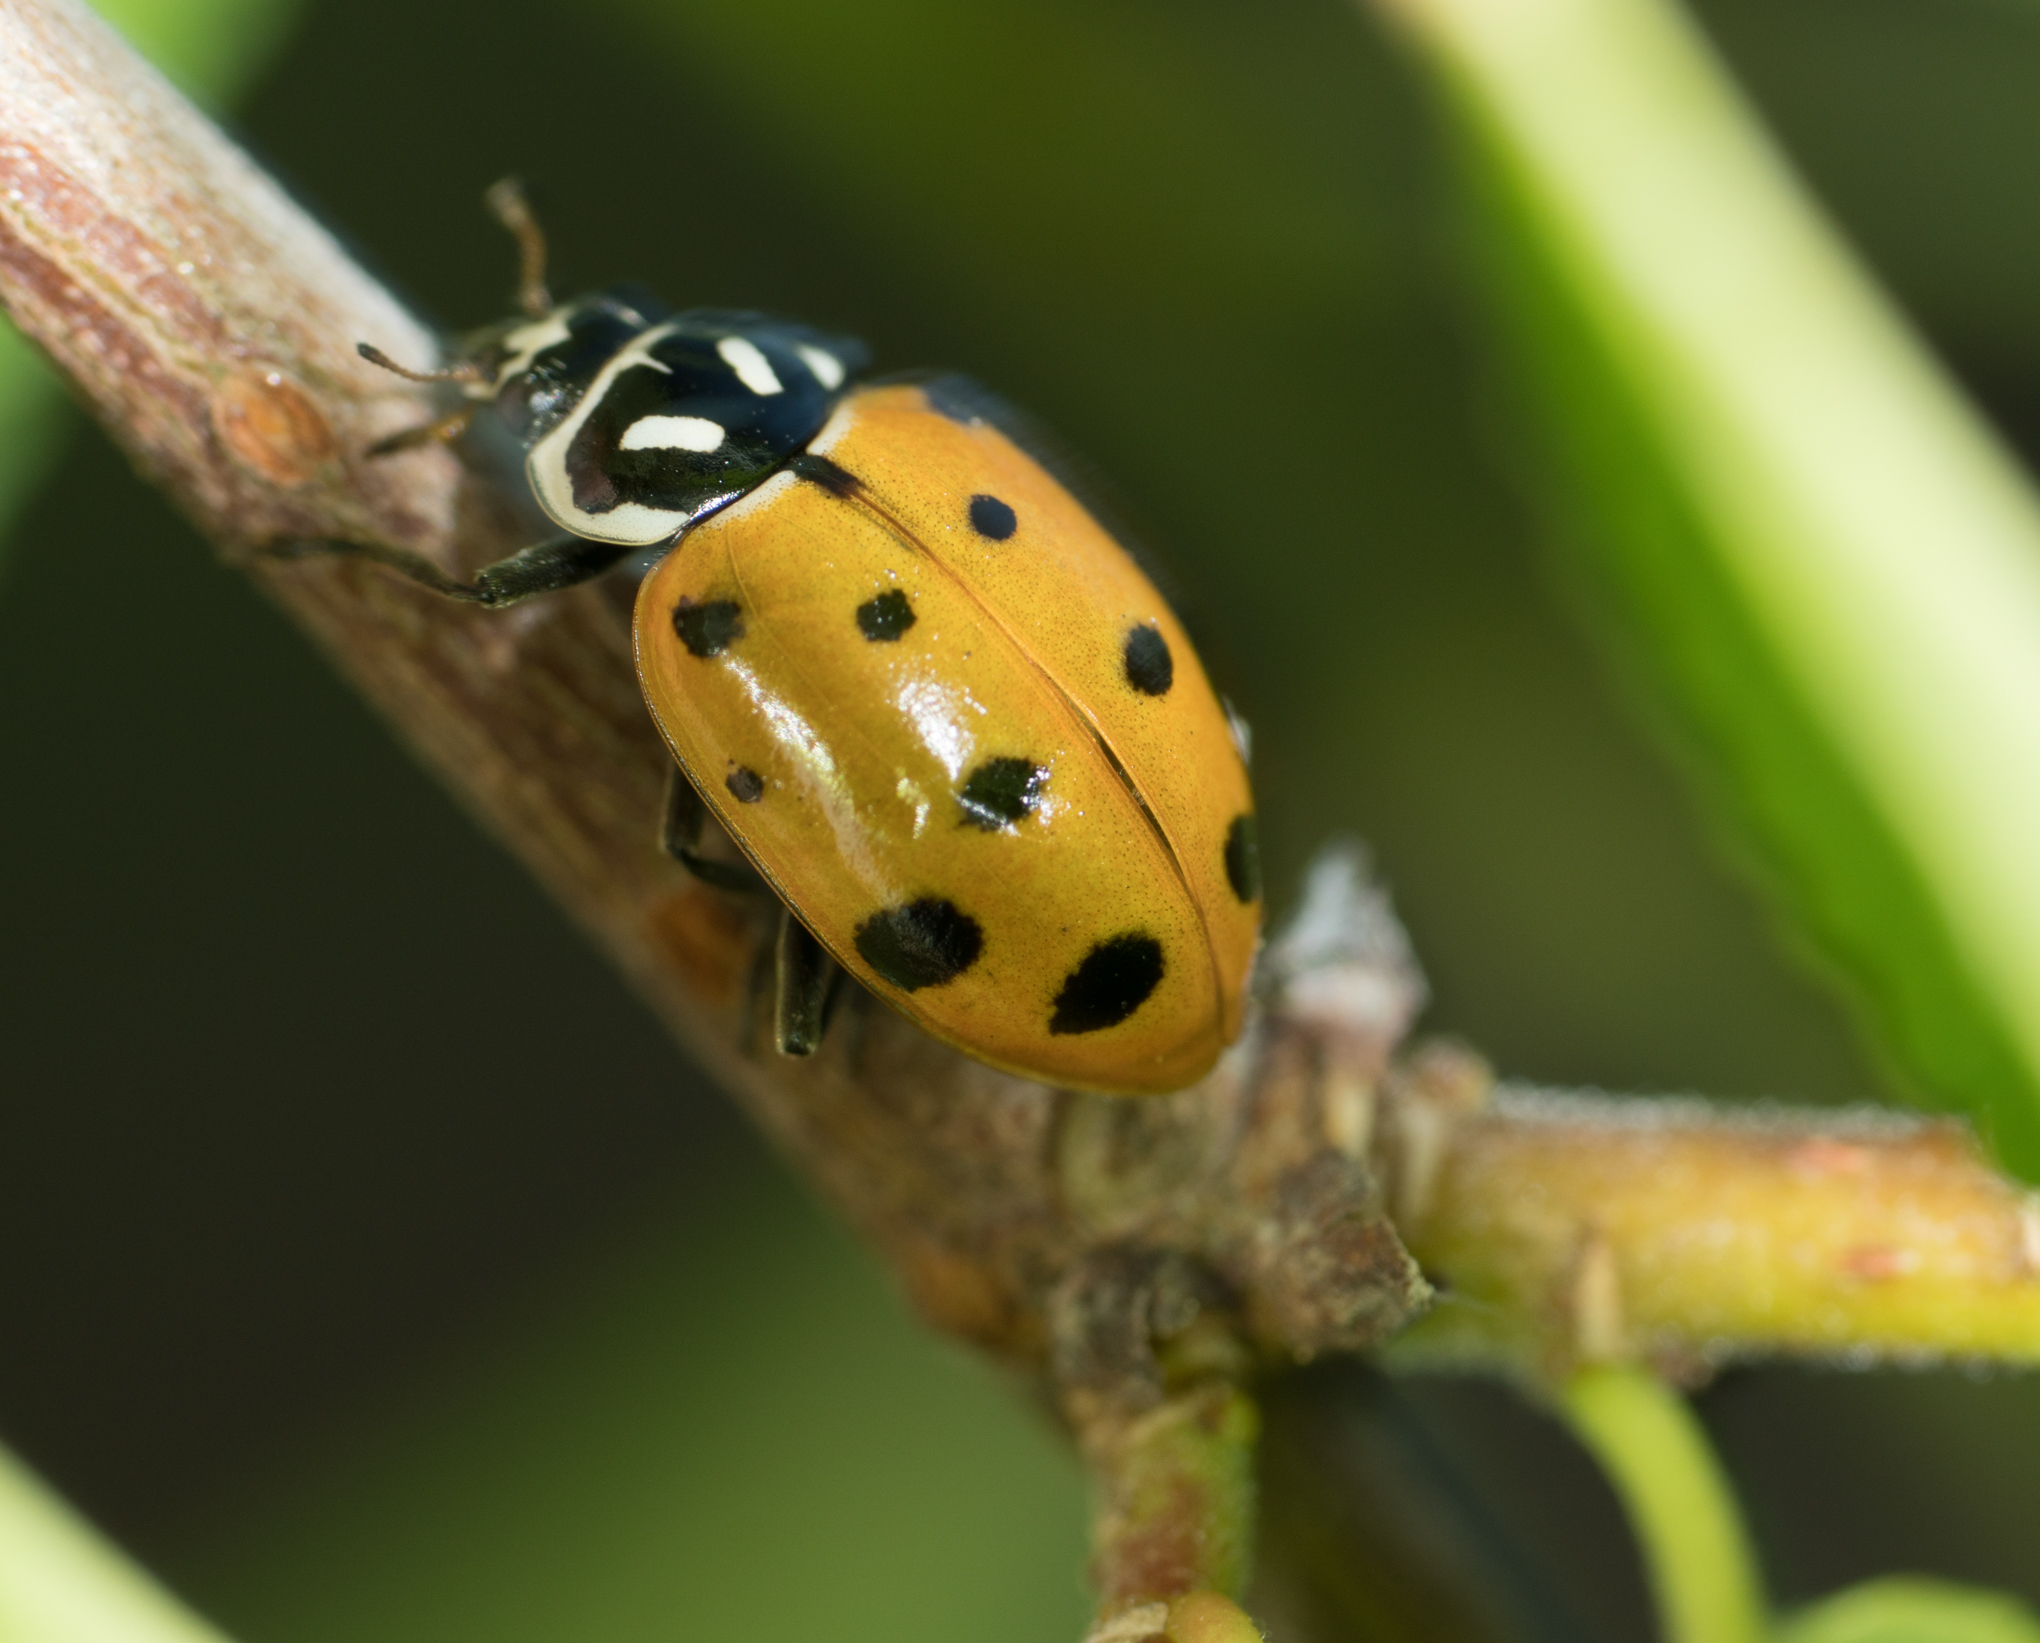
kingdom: Animalia
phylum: Arthropoda
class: Insecta
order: Coleoptera
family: Coccinellidae
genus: Hippodamia
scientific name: Hippodamia convergens
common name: Convergent lady beetle
